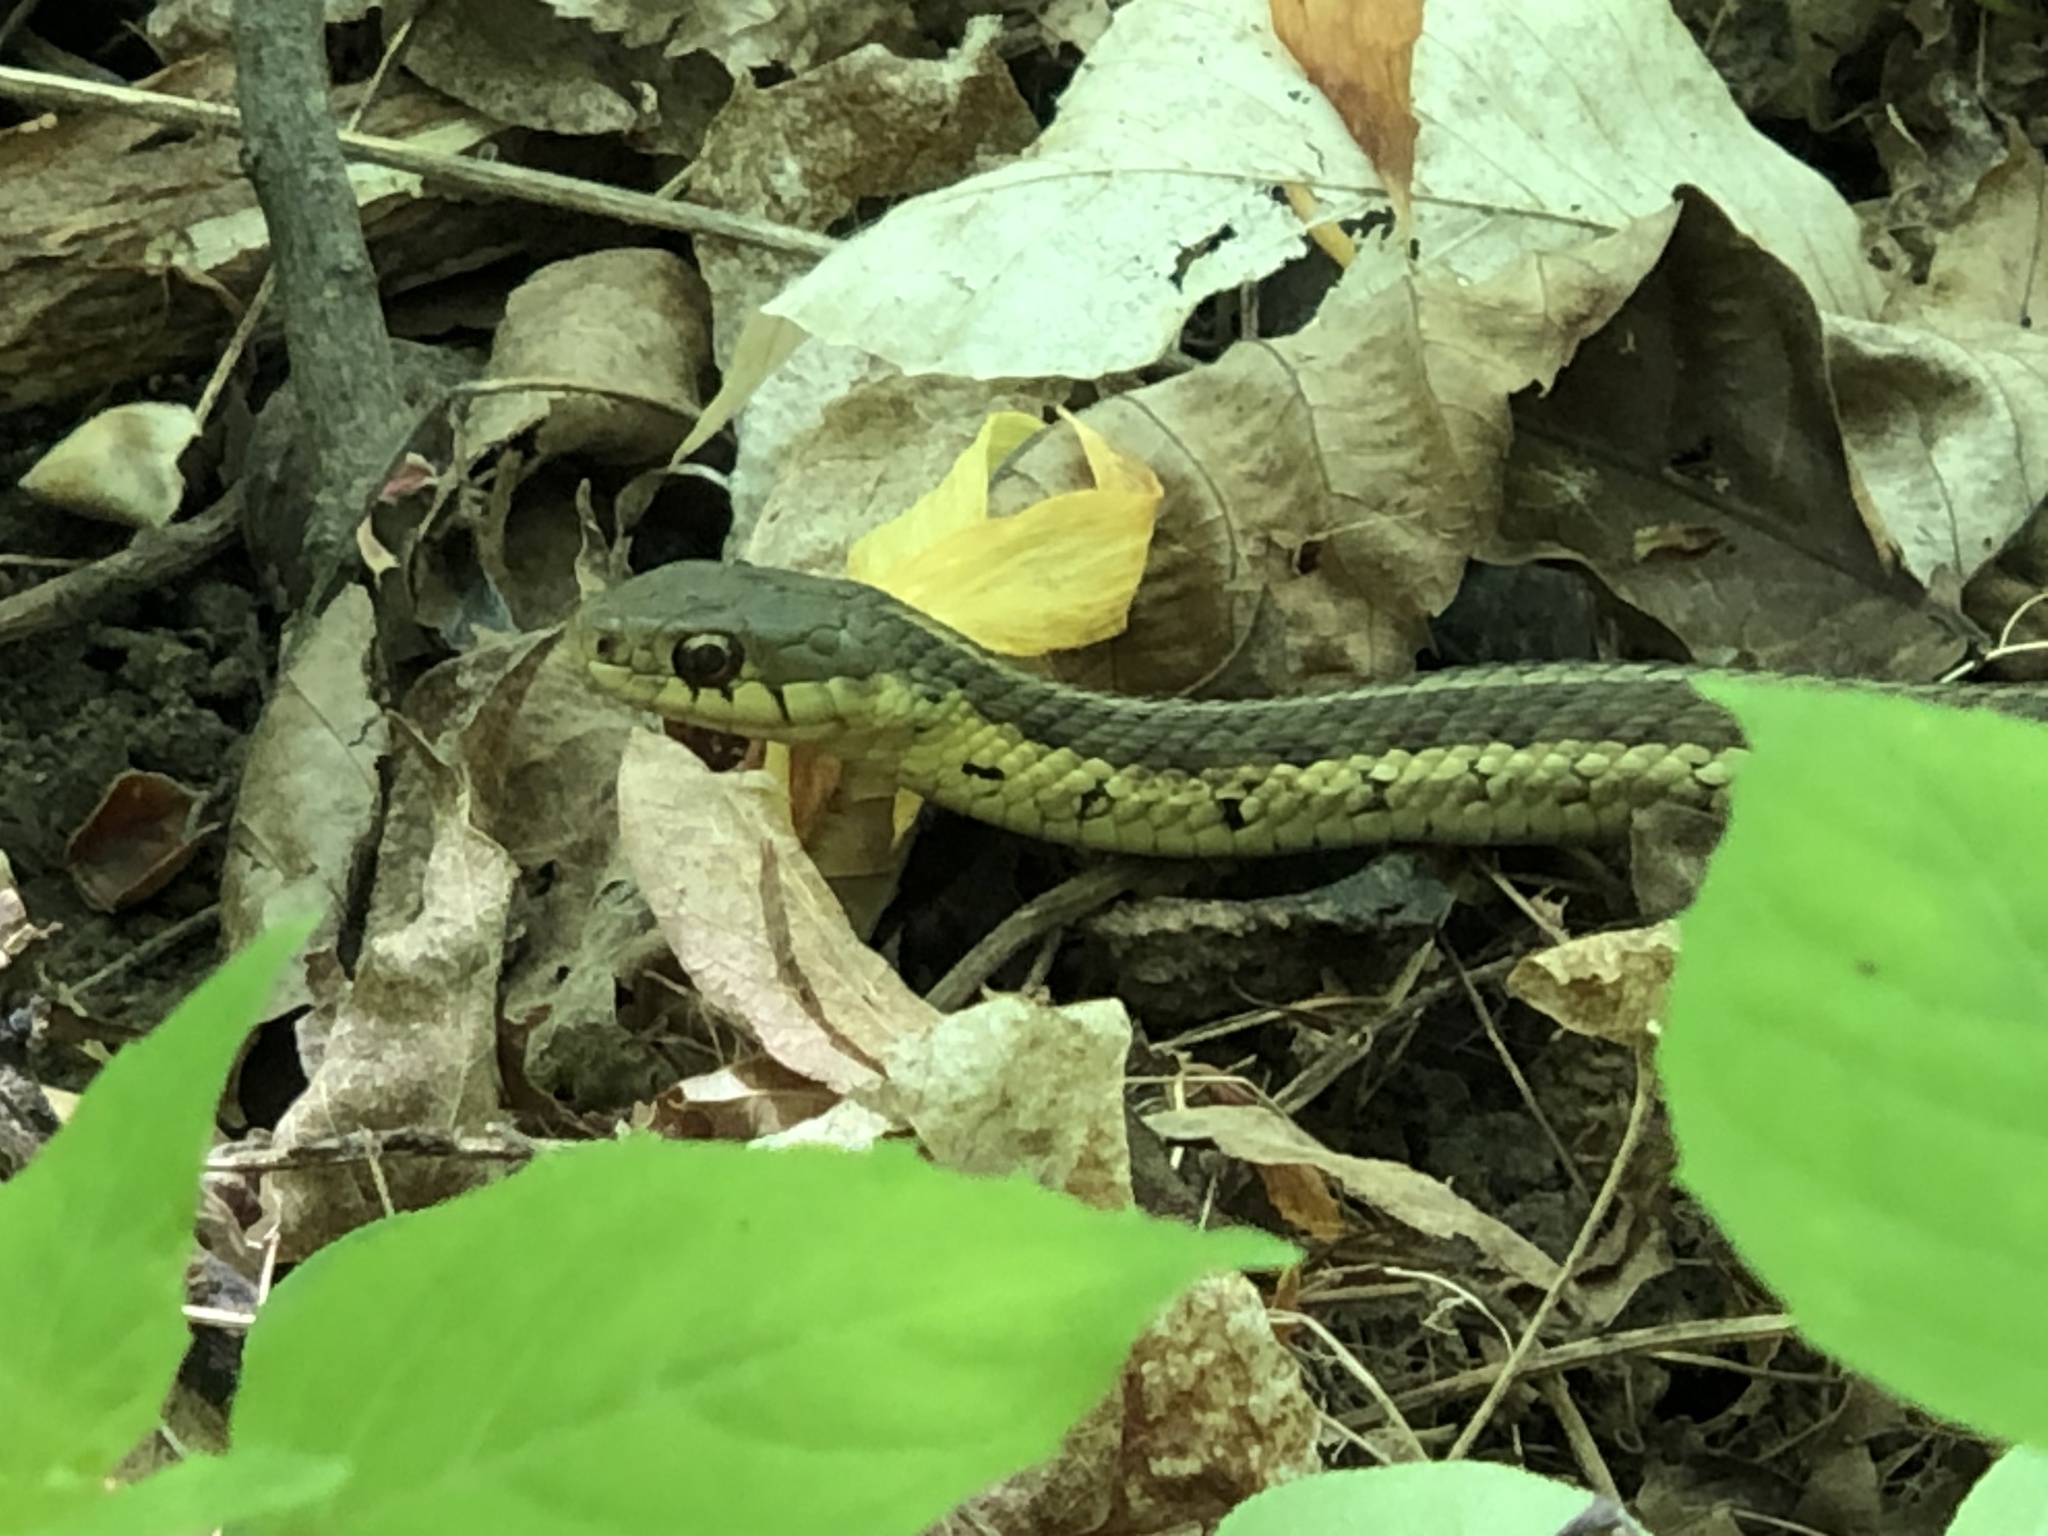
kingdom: Animalia
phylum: Chordata
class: Squamata
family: Colubridae
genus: Thamnophis
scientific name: Thamnophis sirtalis
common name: Common garter snake
